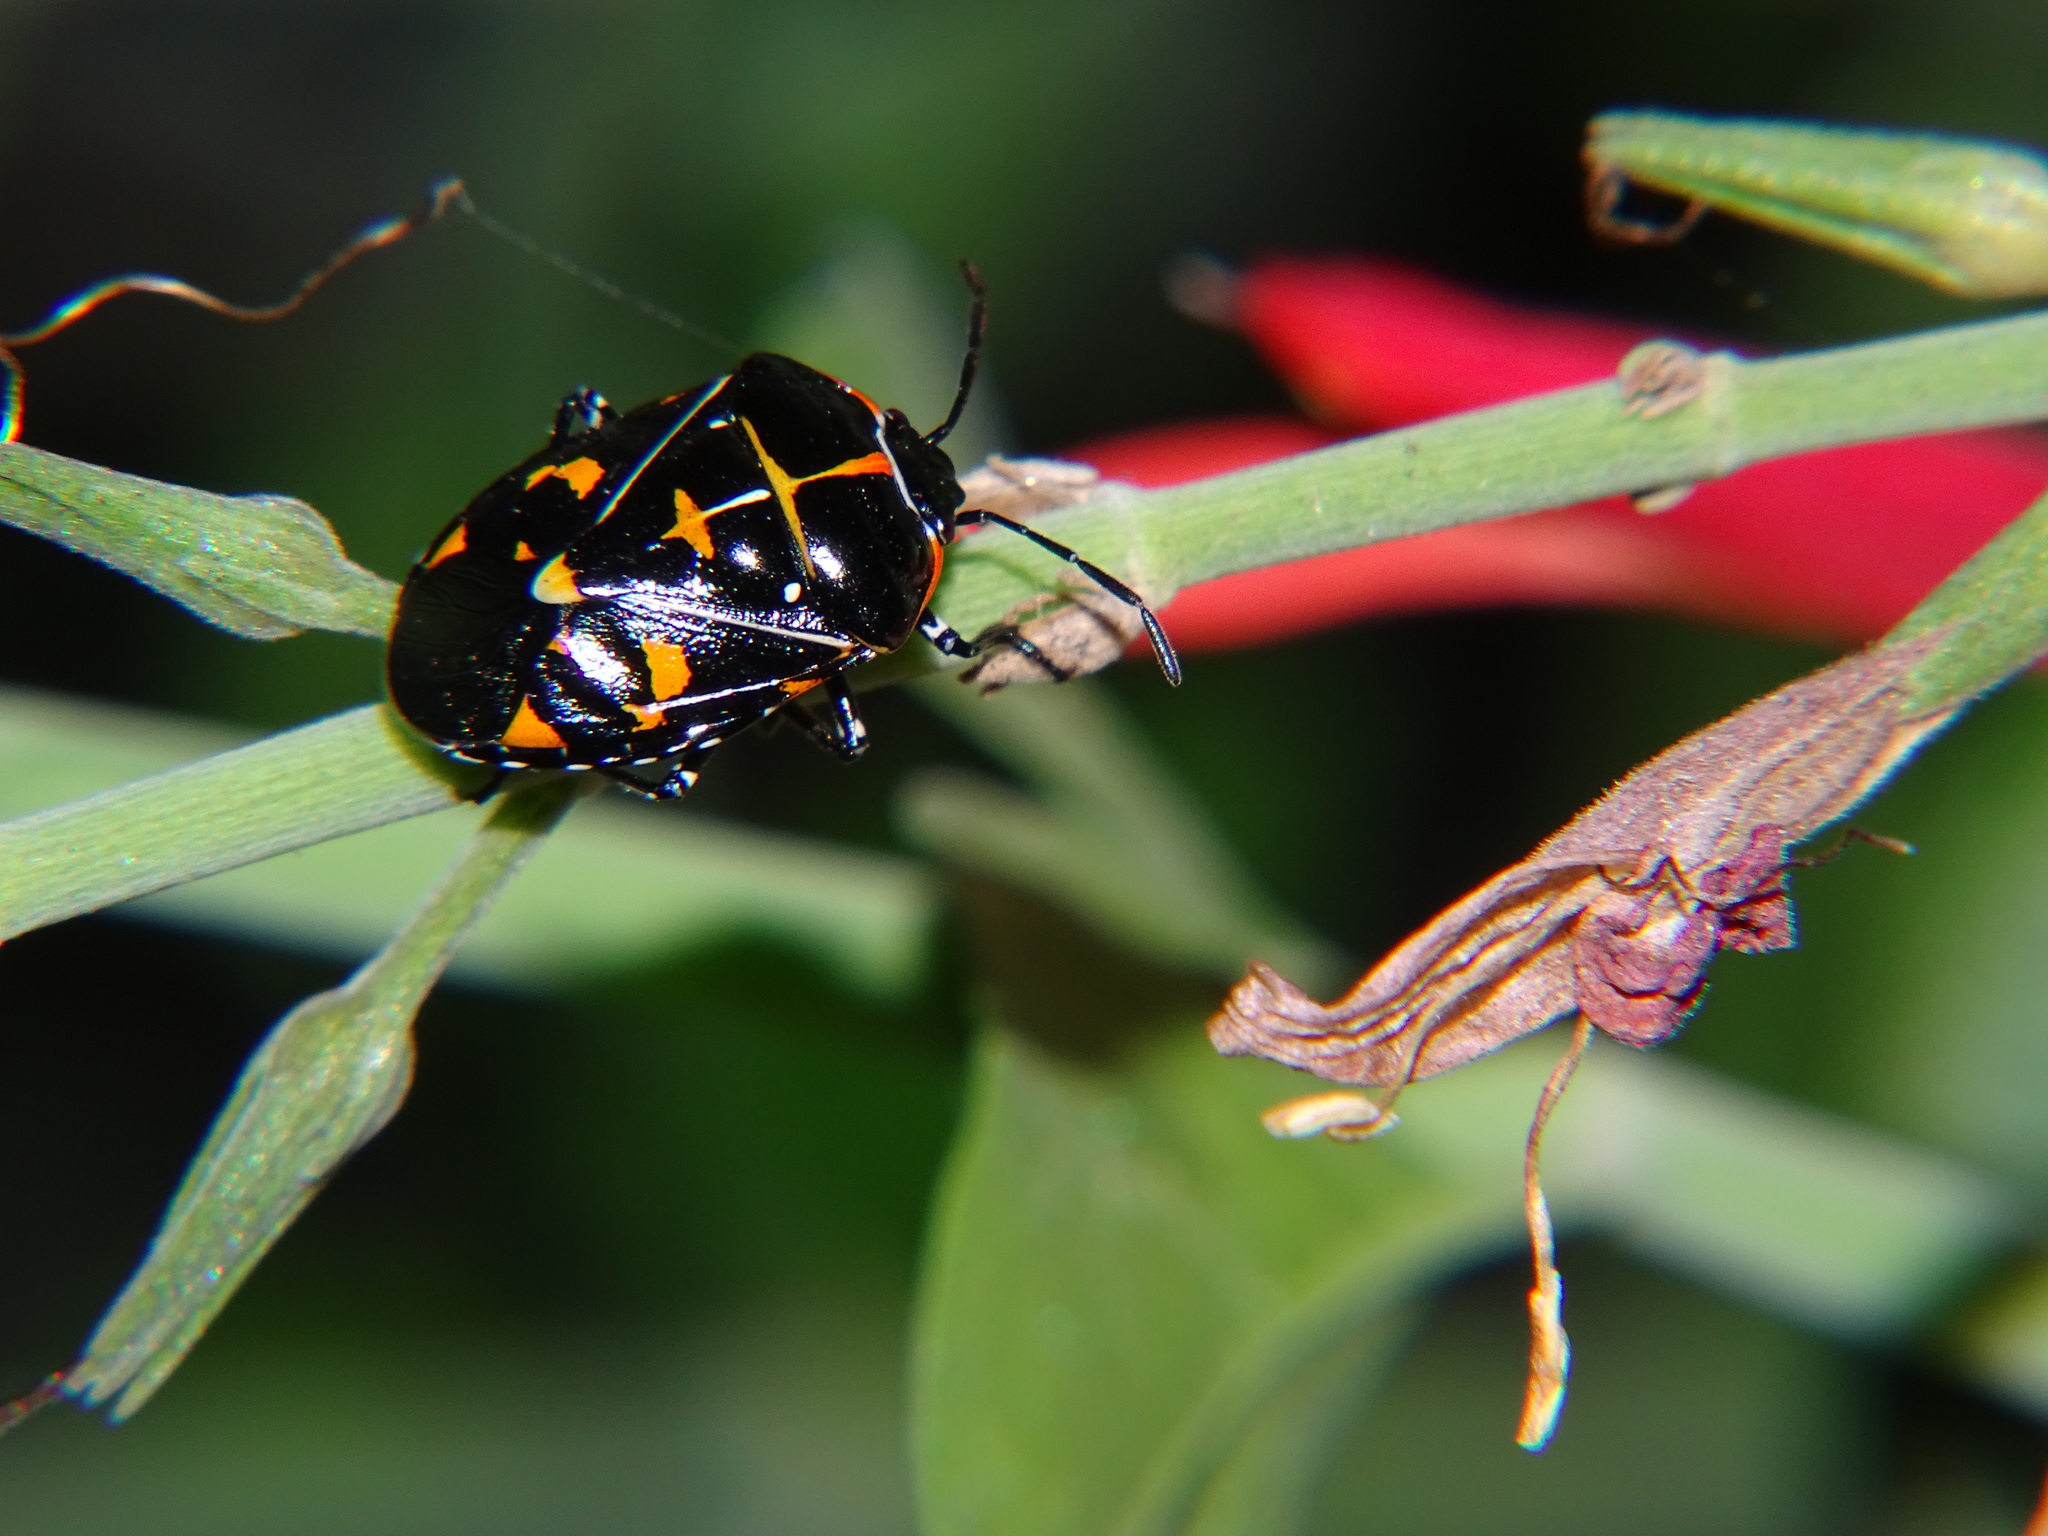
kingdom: Animalia
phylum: Arthropoda
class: Insecta
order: Hemiptera
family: Pentatomidae
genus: Murgantia
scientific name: Murgantia histrionica
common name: Harlequin bug
